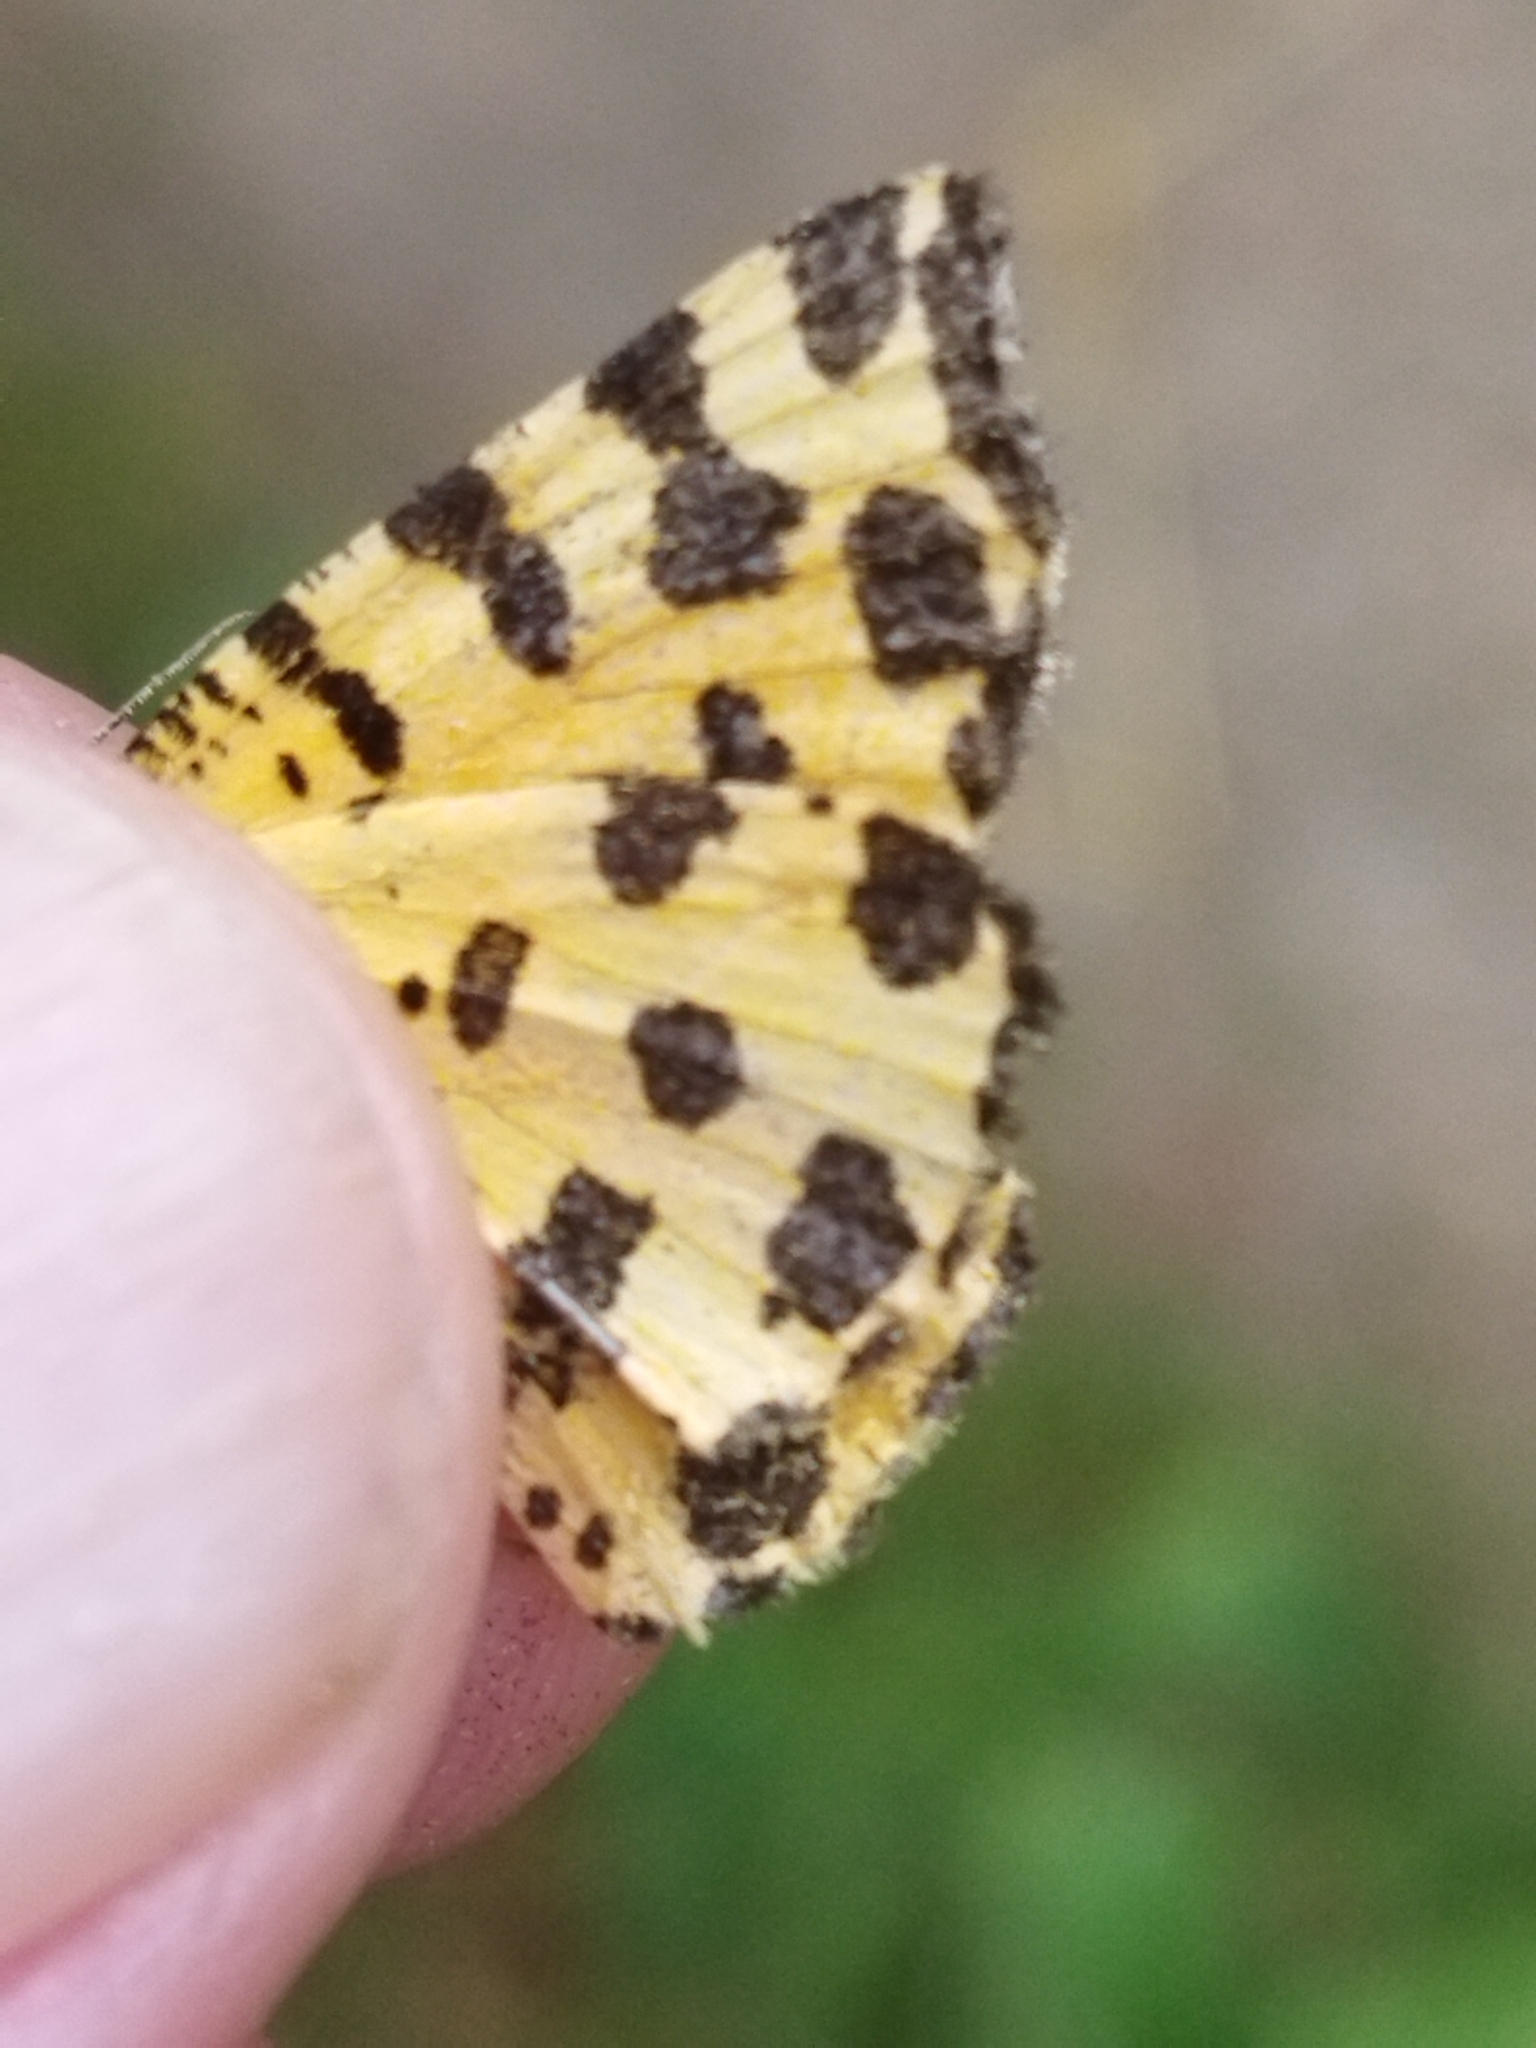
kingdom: Animalia
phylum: Arthropoda
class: Insecta
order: Lepidoptera
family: Geometridae
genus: Pseudopanthera
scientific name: Pseudopanthera macularia
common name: Speckled yellow
